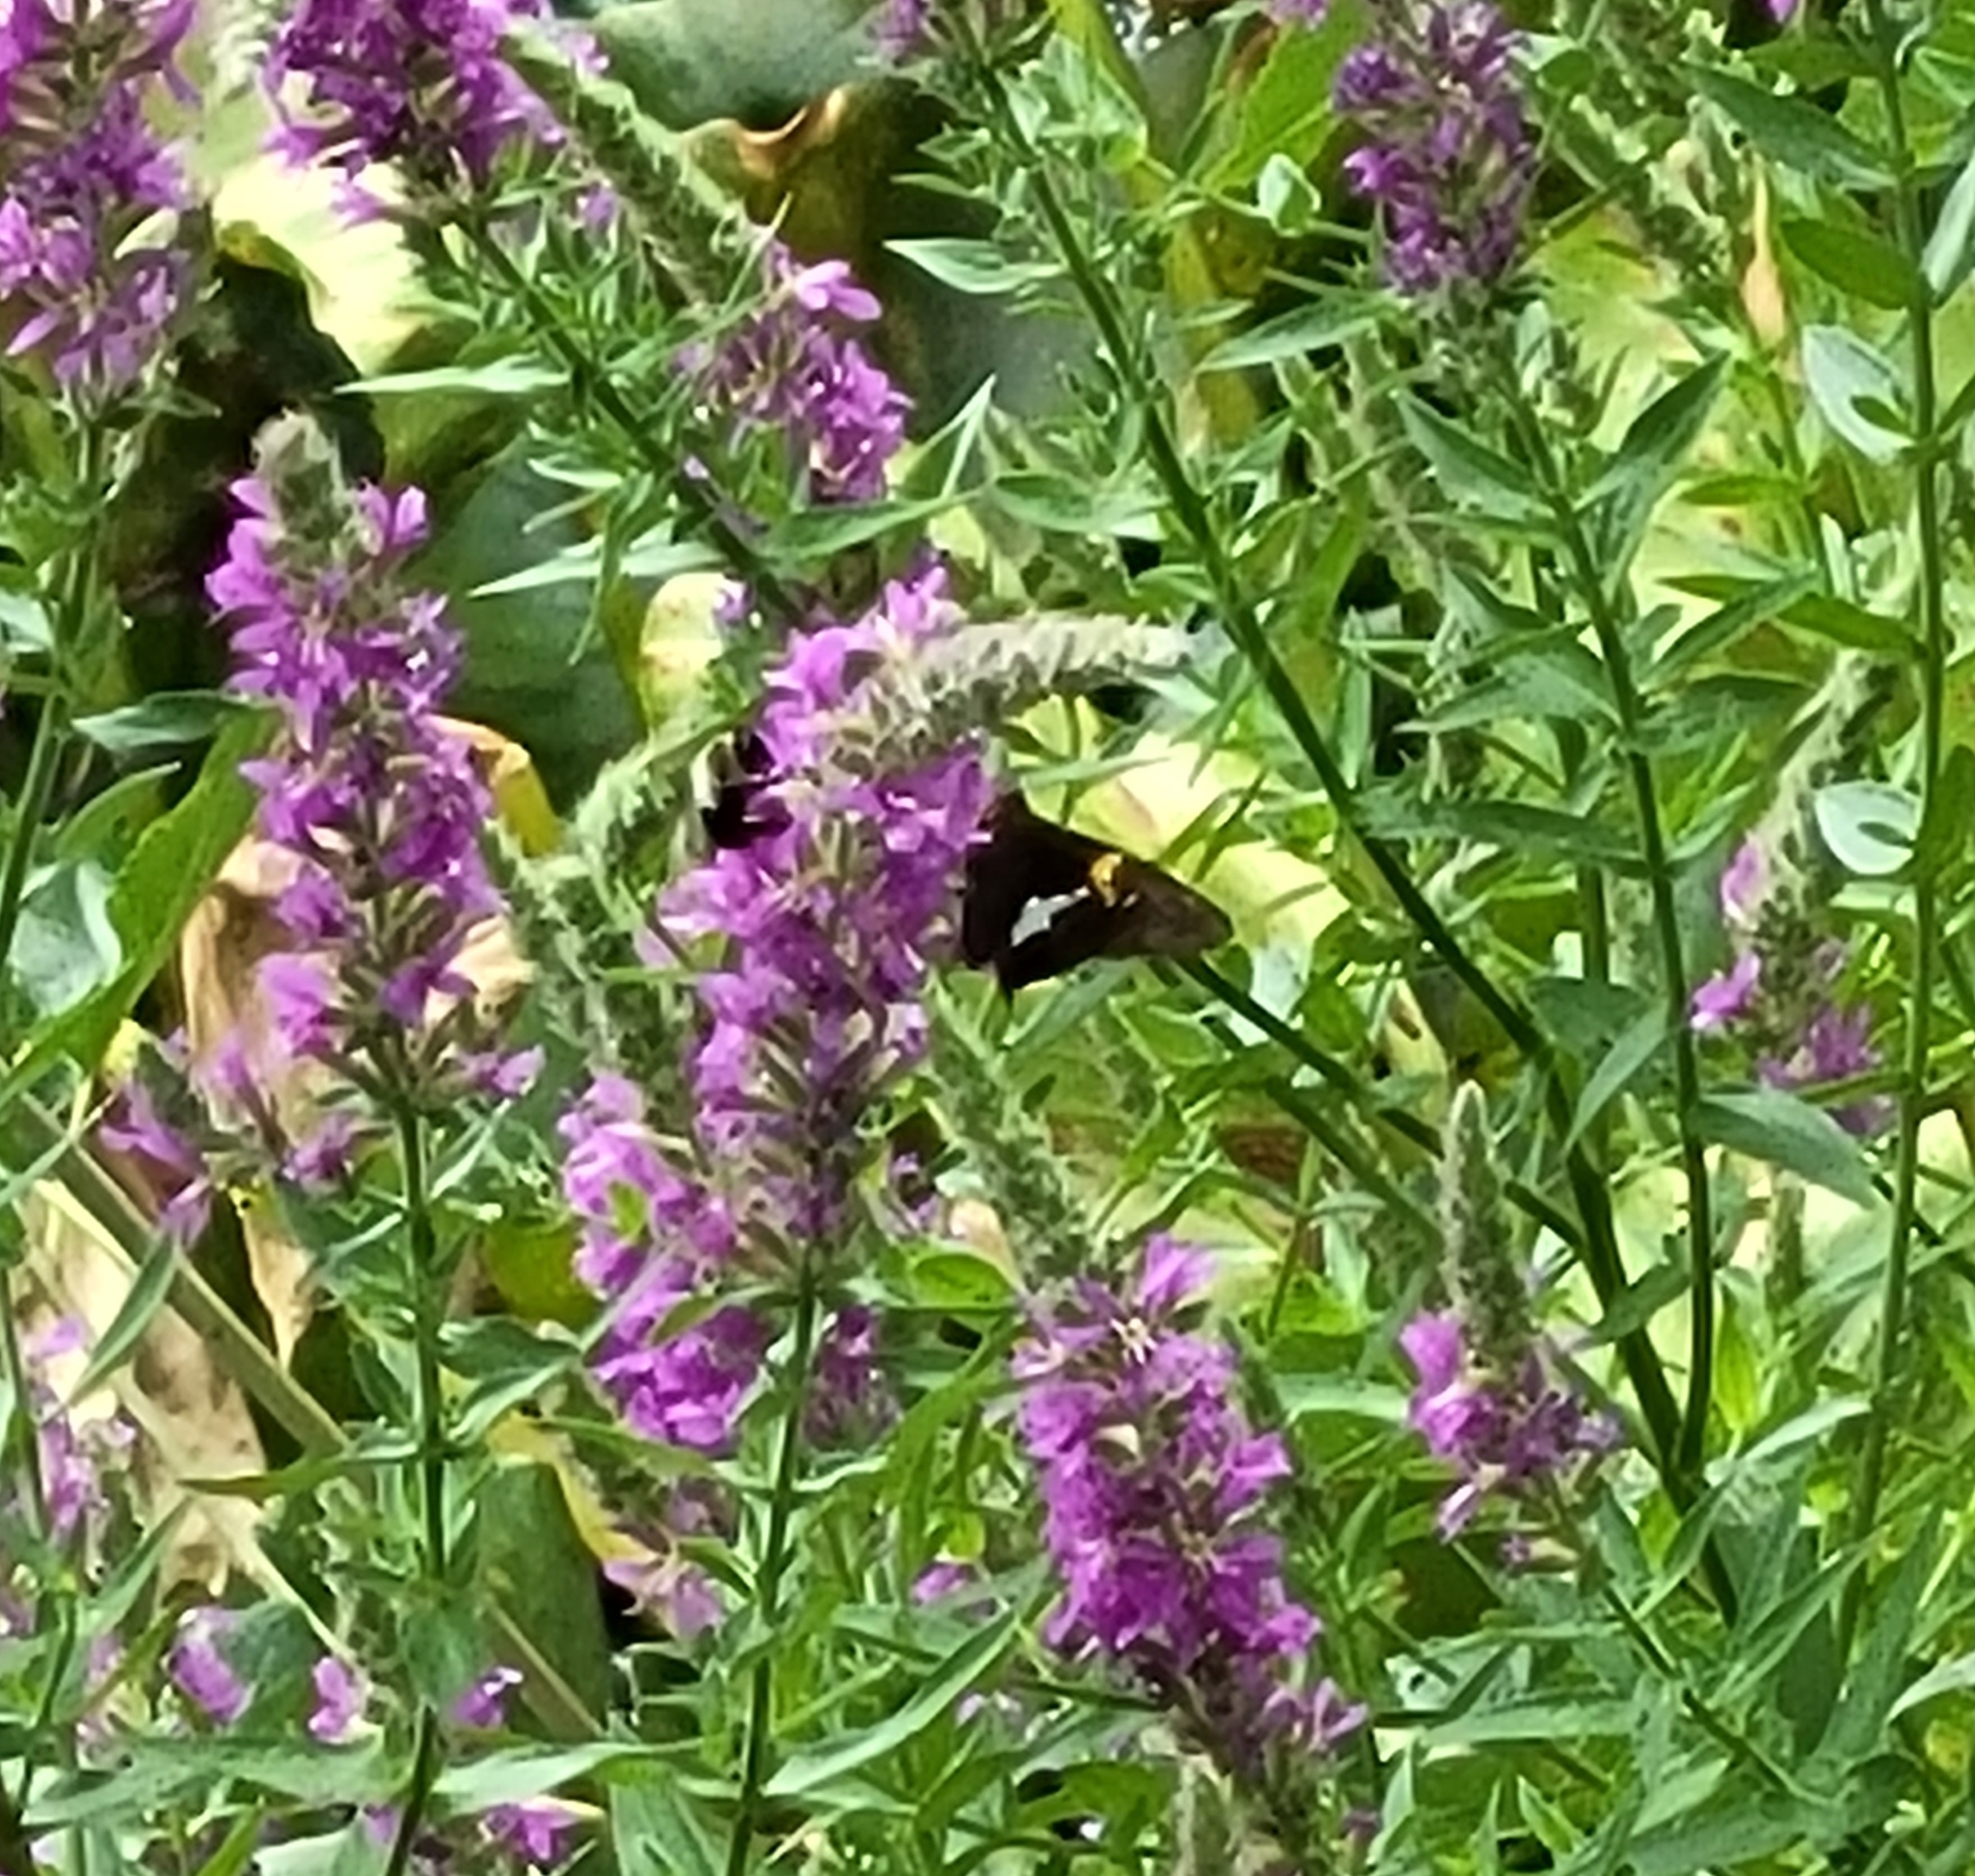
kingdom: Animalia
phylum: Arthropoda
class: Insecta
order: Lepidoptera
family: Hesperiidae
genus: Epargyreus
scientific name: Epargyreus clarus
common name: Silver-spotted skipper
